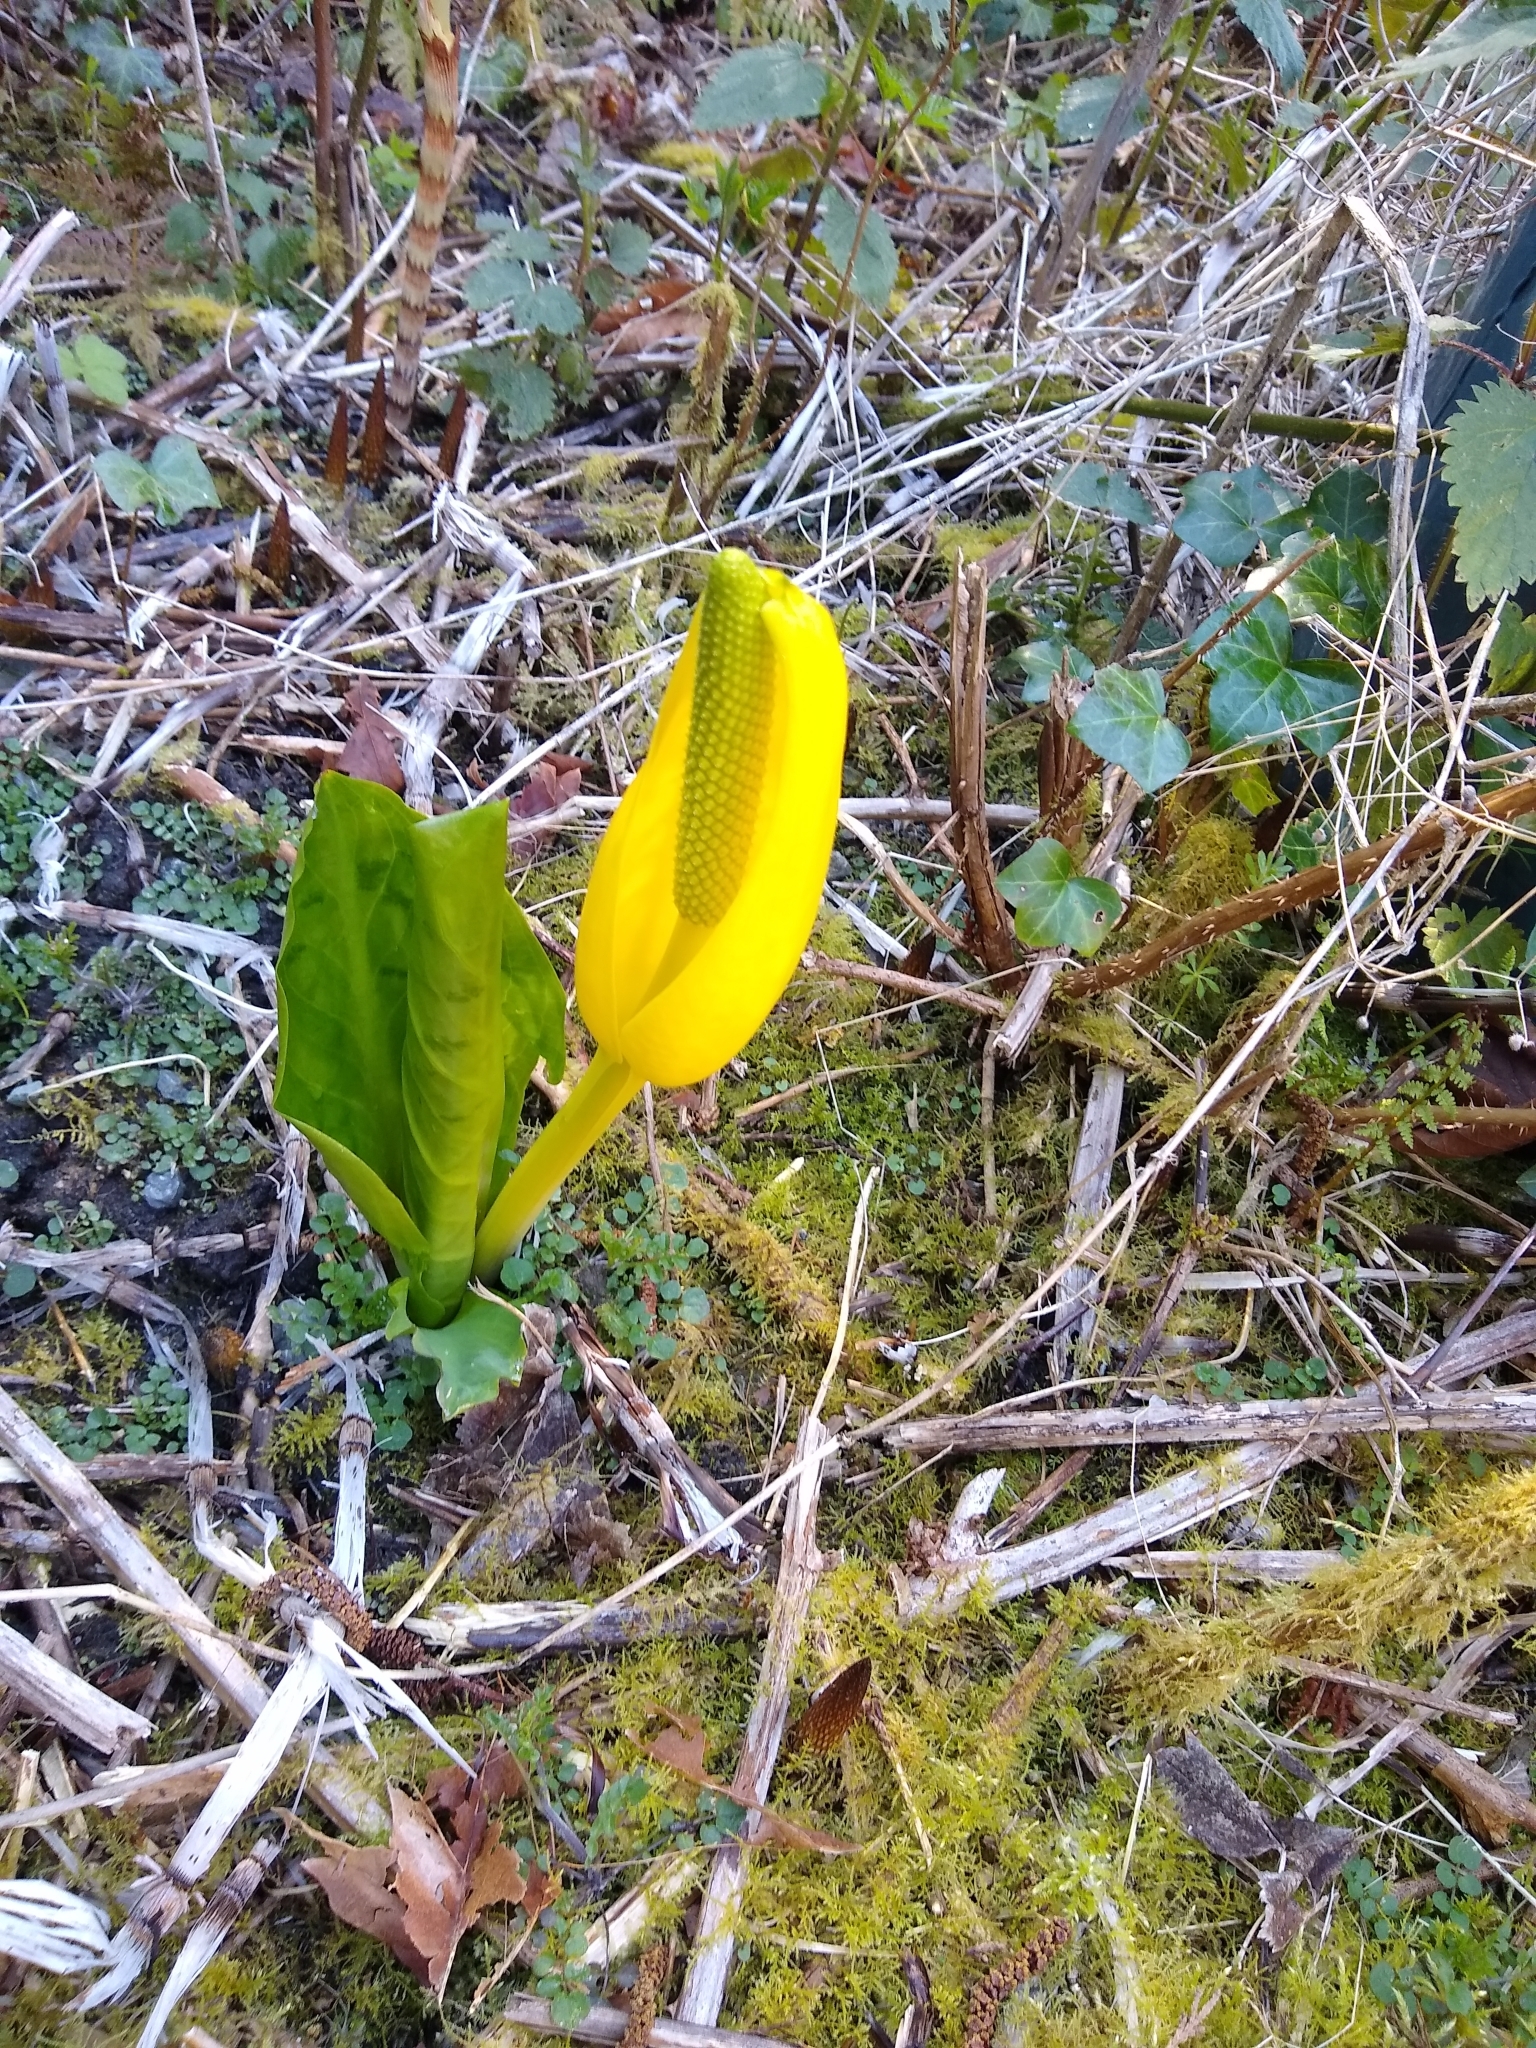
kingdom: Plantae
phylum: Tracheophyta
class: Liliopsida
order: Alismatales
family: Araceae
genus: Lysichiton
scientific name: Lysichiton americanus
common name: American skunk cabbage
